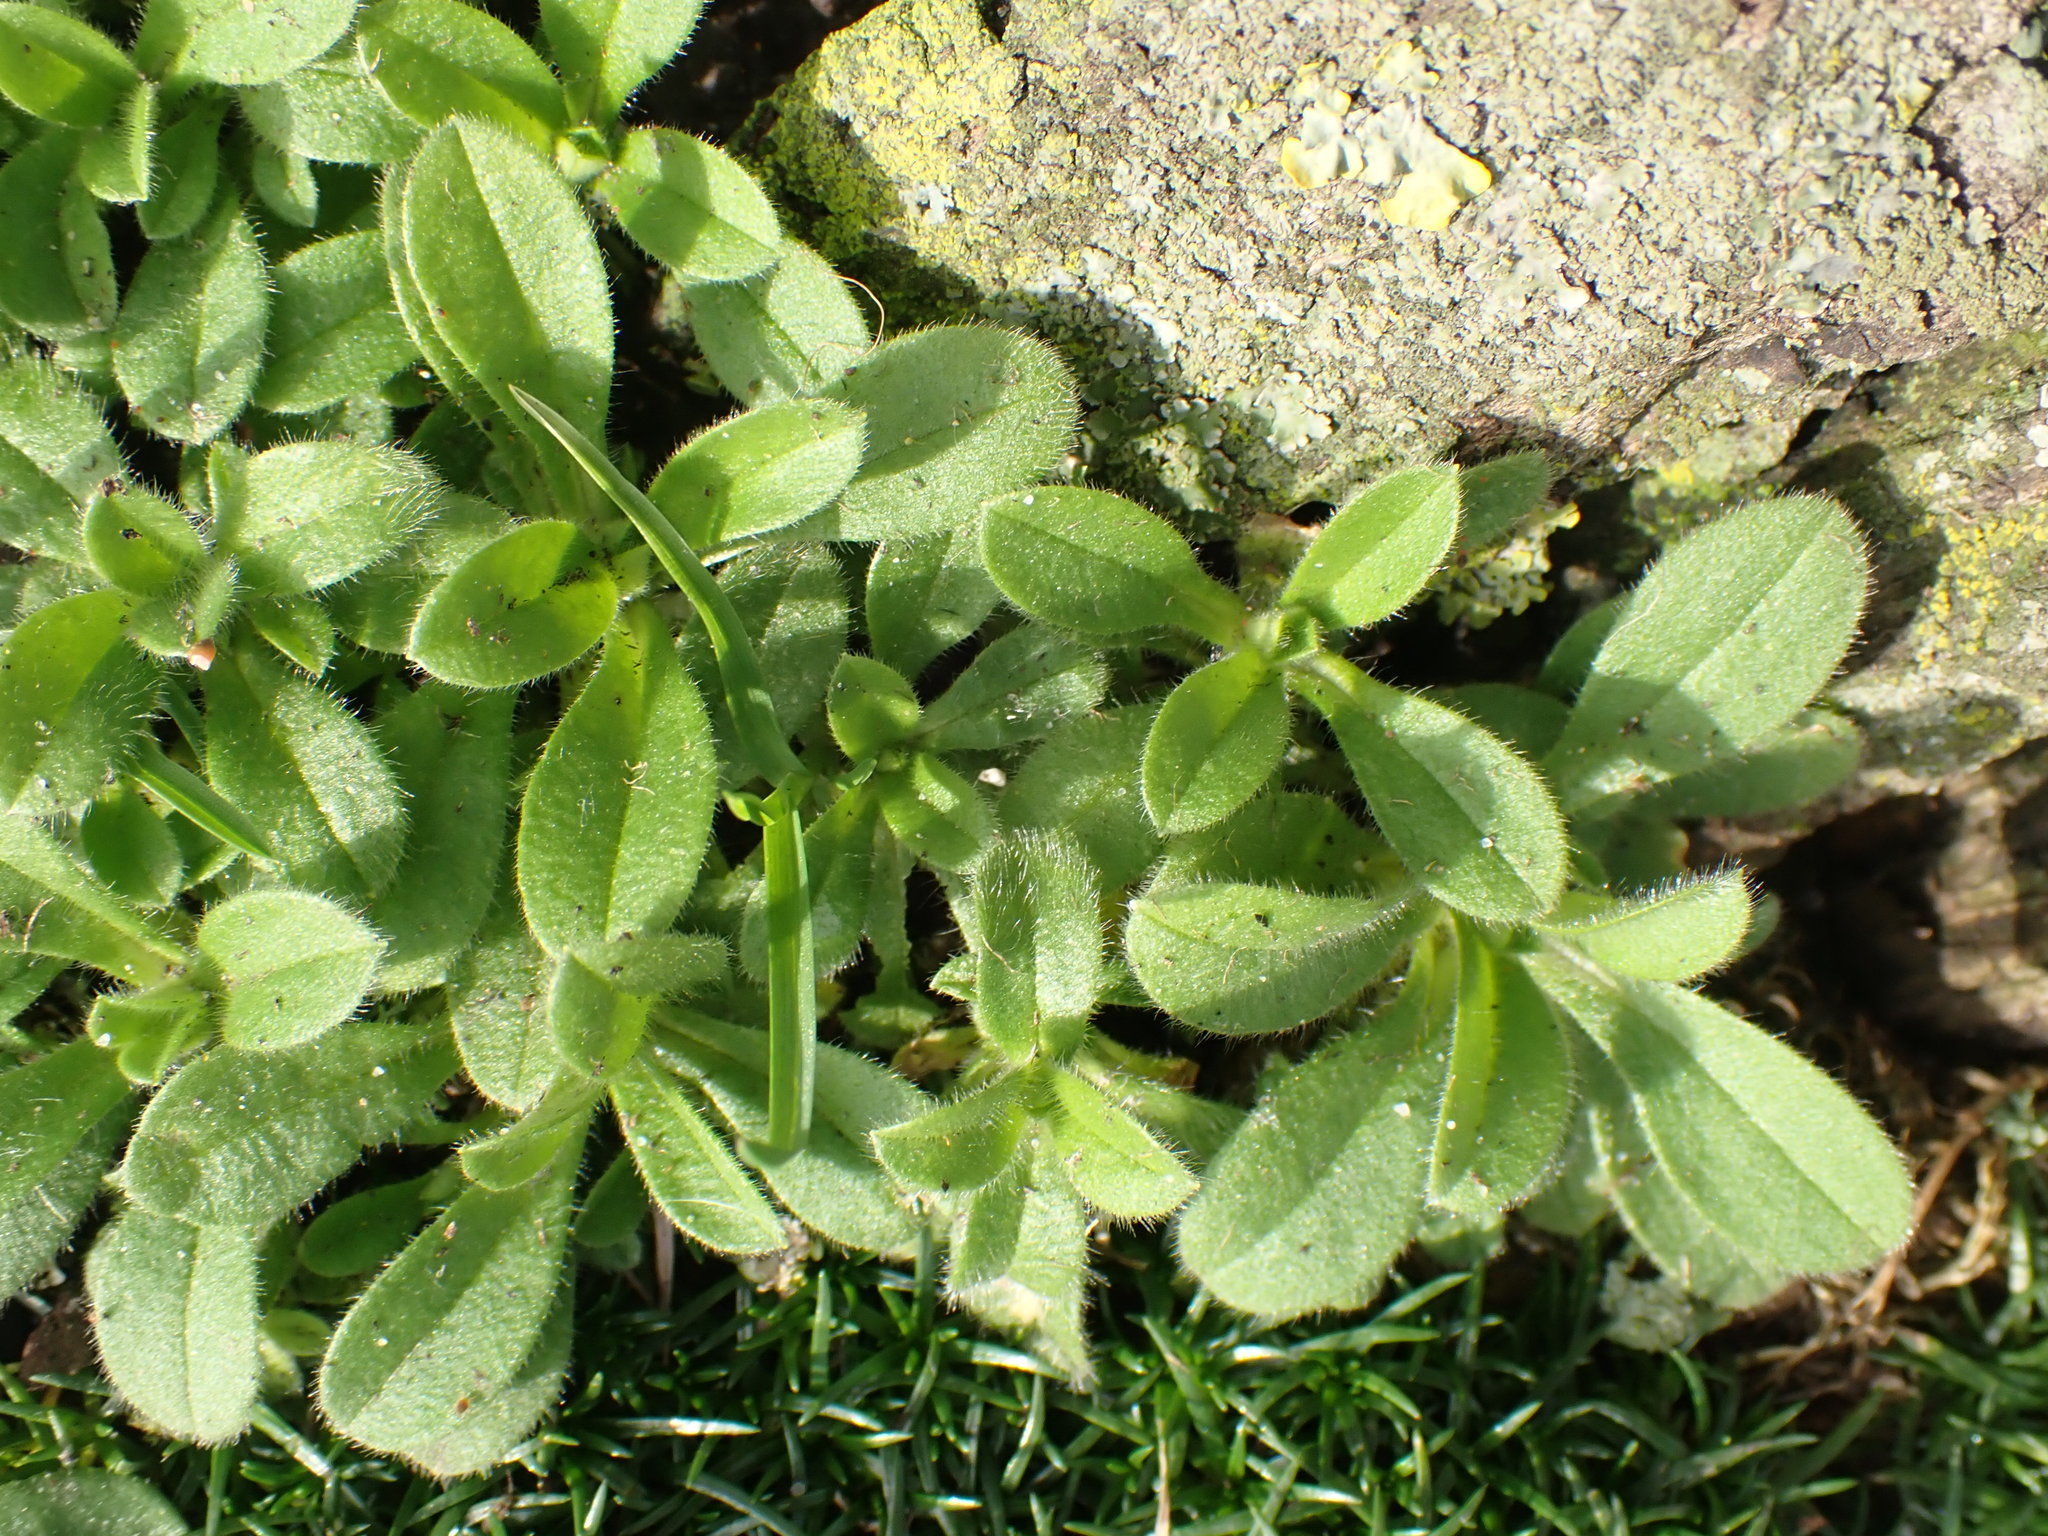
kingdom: Plantae
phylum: Tracheophyta
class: Magnoliopsida
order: Caryophyllales
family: Caryophyllaceae
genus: Cerastium
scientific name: Cerastium glomeratum
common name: Sticky chickweed
